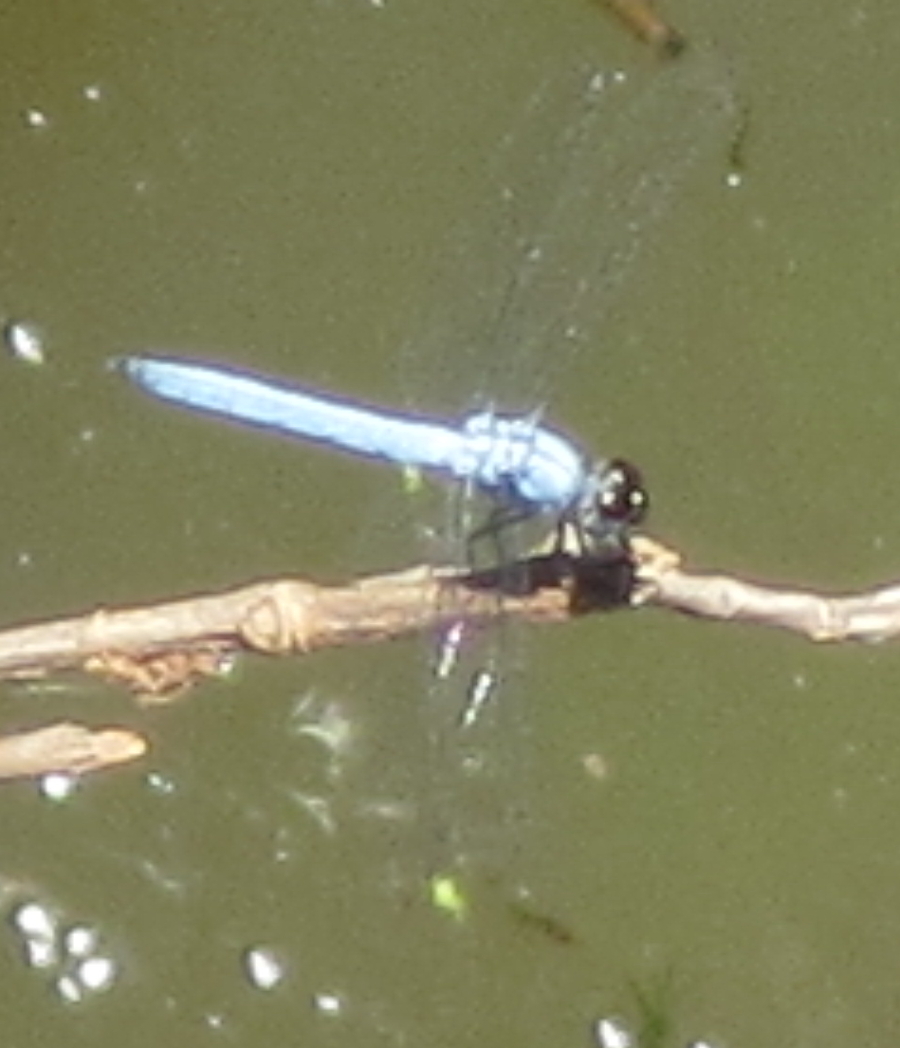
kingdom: Animalia
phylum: Arthropoda
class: Insecta
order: Odonata
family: Libellulidae
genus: Chalcostephia
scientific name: Chalcostephia flavifrons
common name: Inspector
